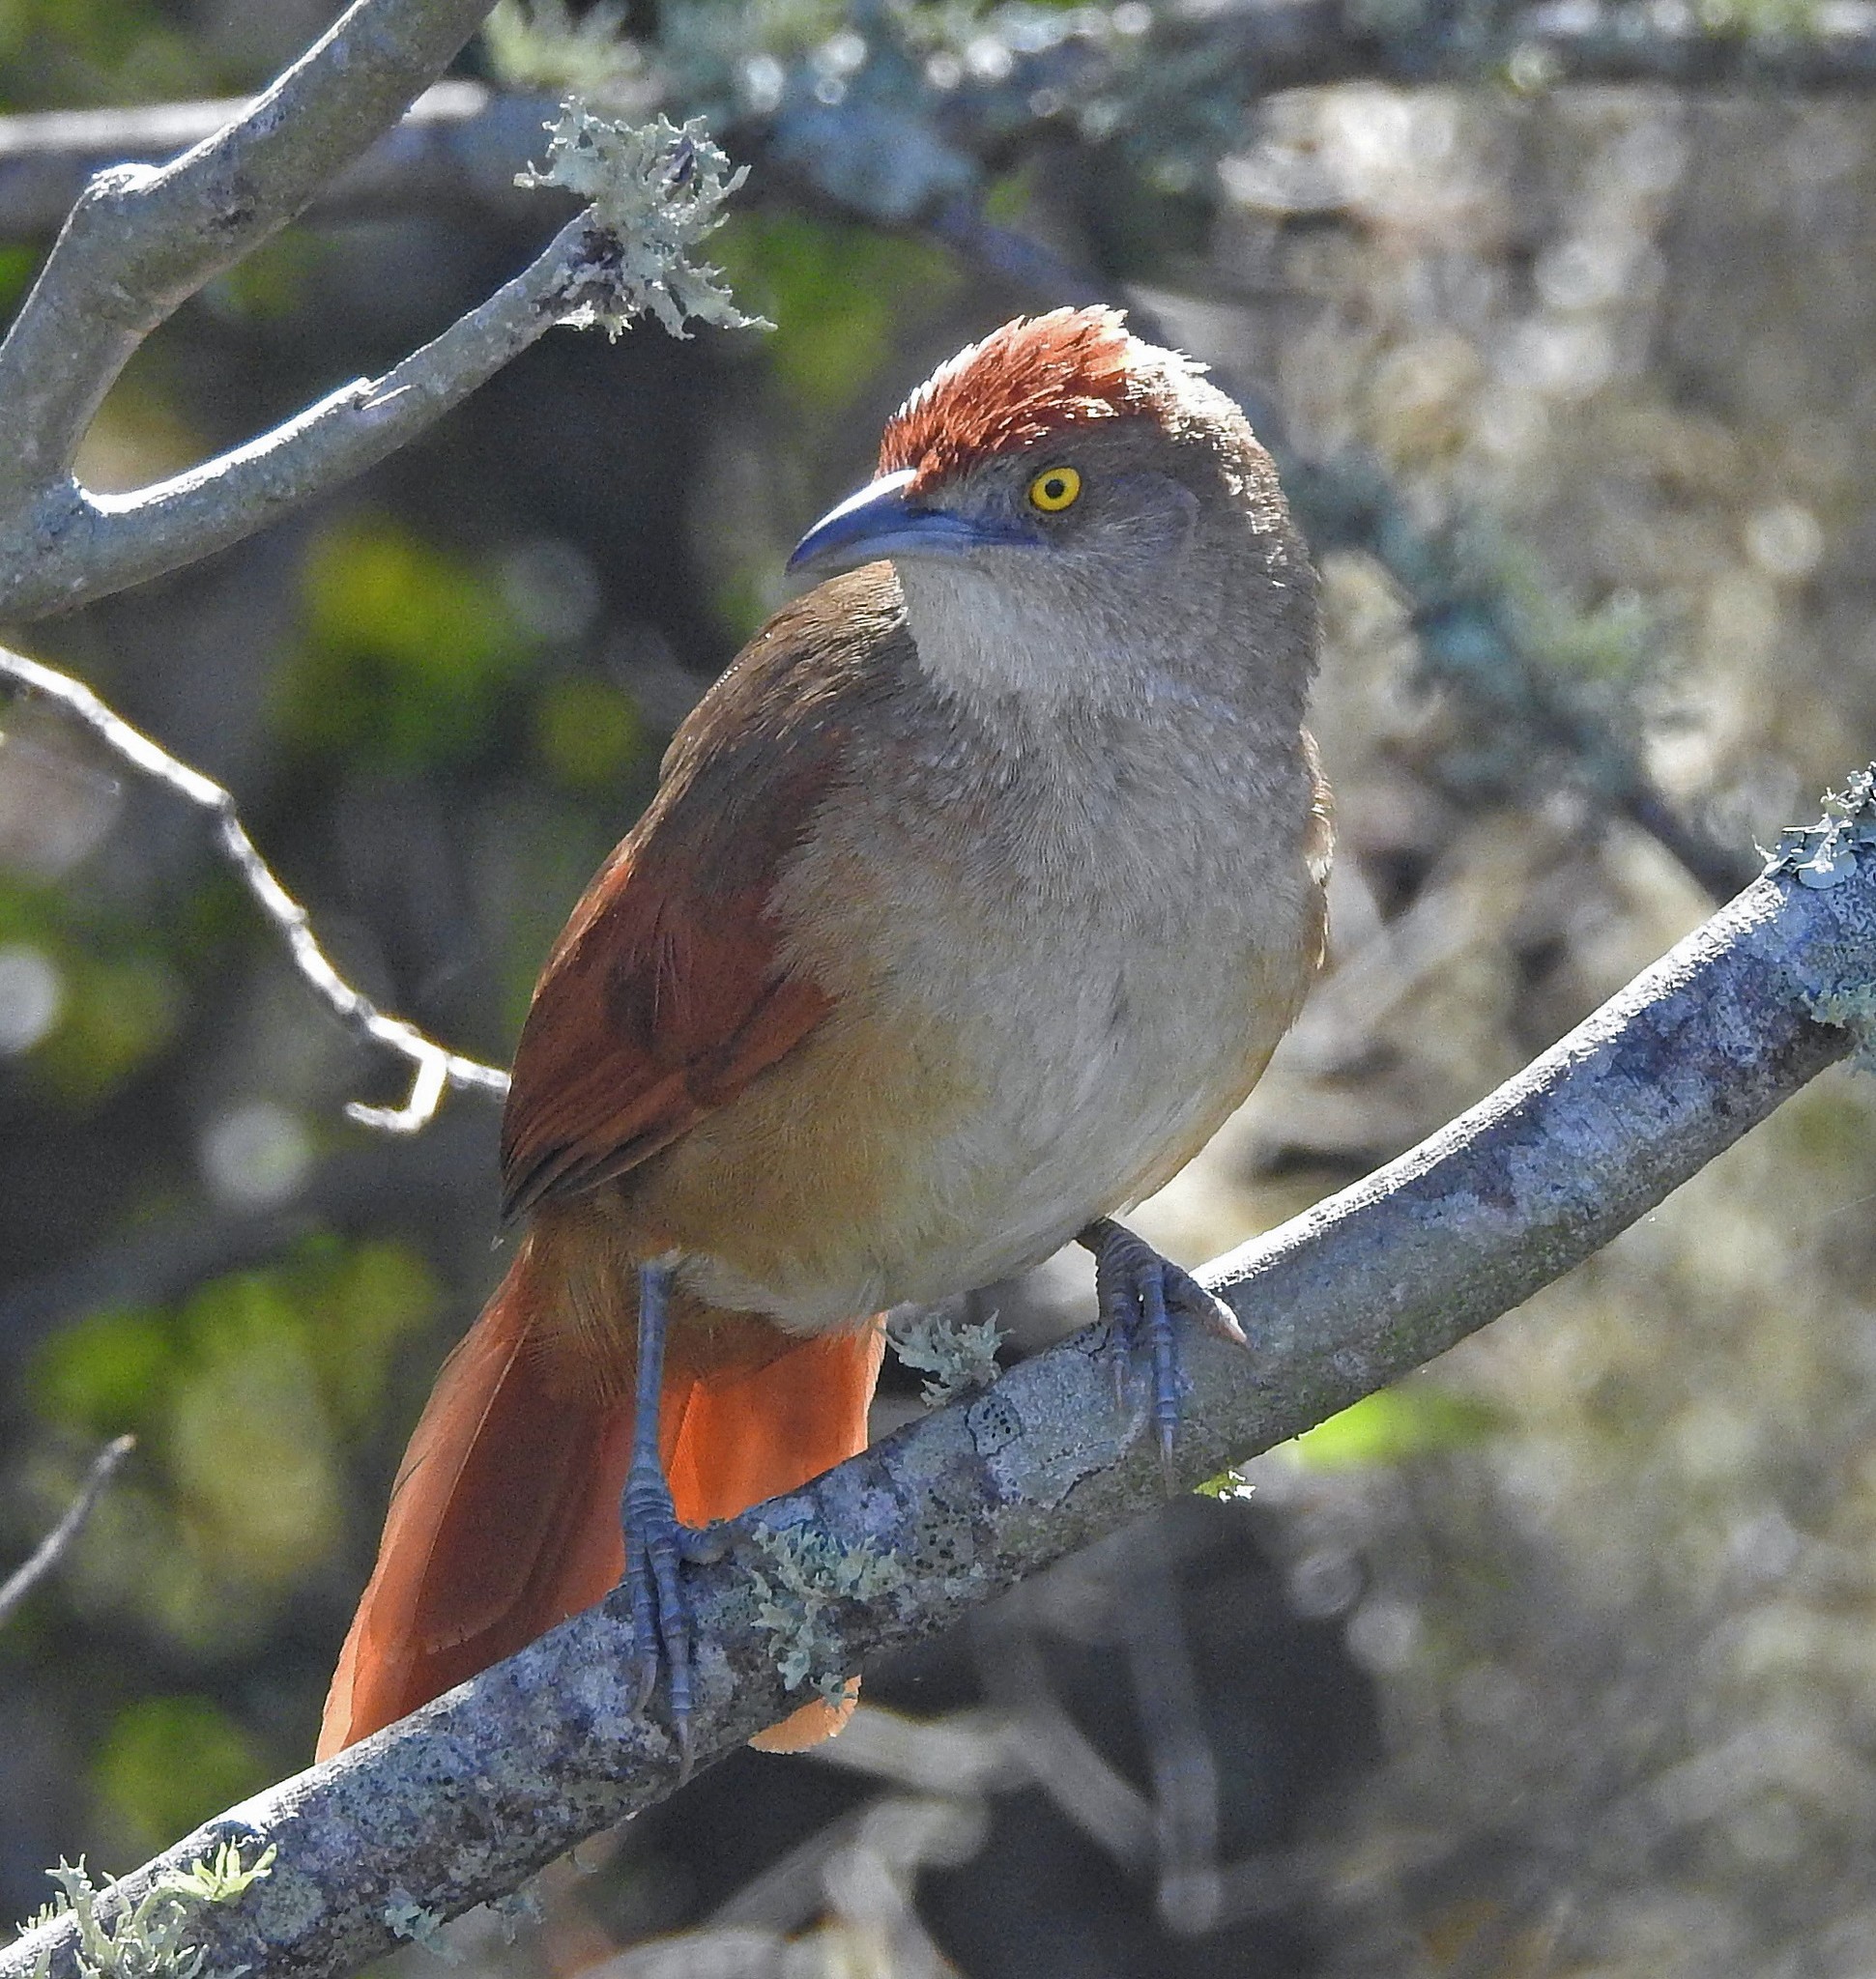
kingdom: Animalia
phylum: Chordata
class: Aves
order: Passeriformes
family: Furnariidae
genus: Phacellodomus
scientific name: Phacellodomus ruber
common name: Greater thornbird
